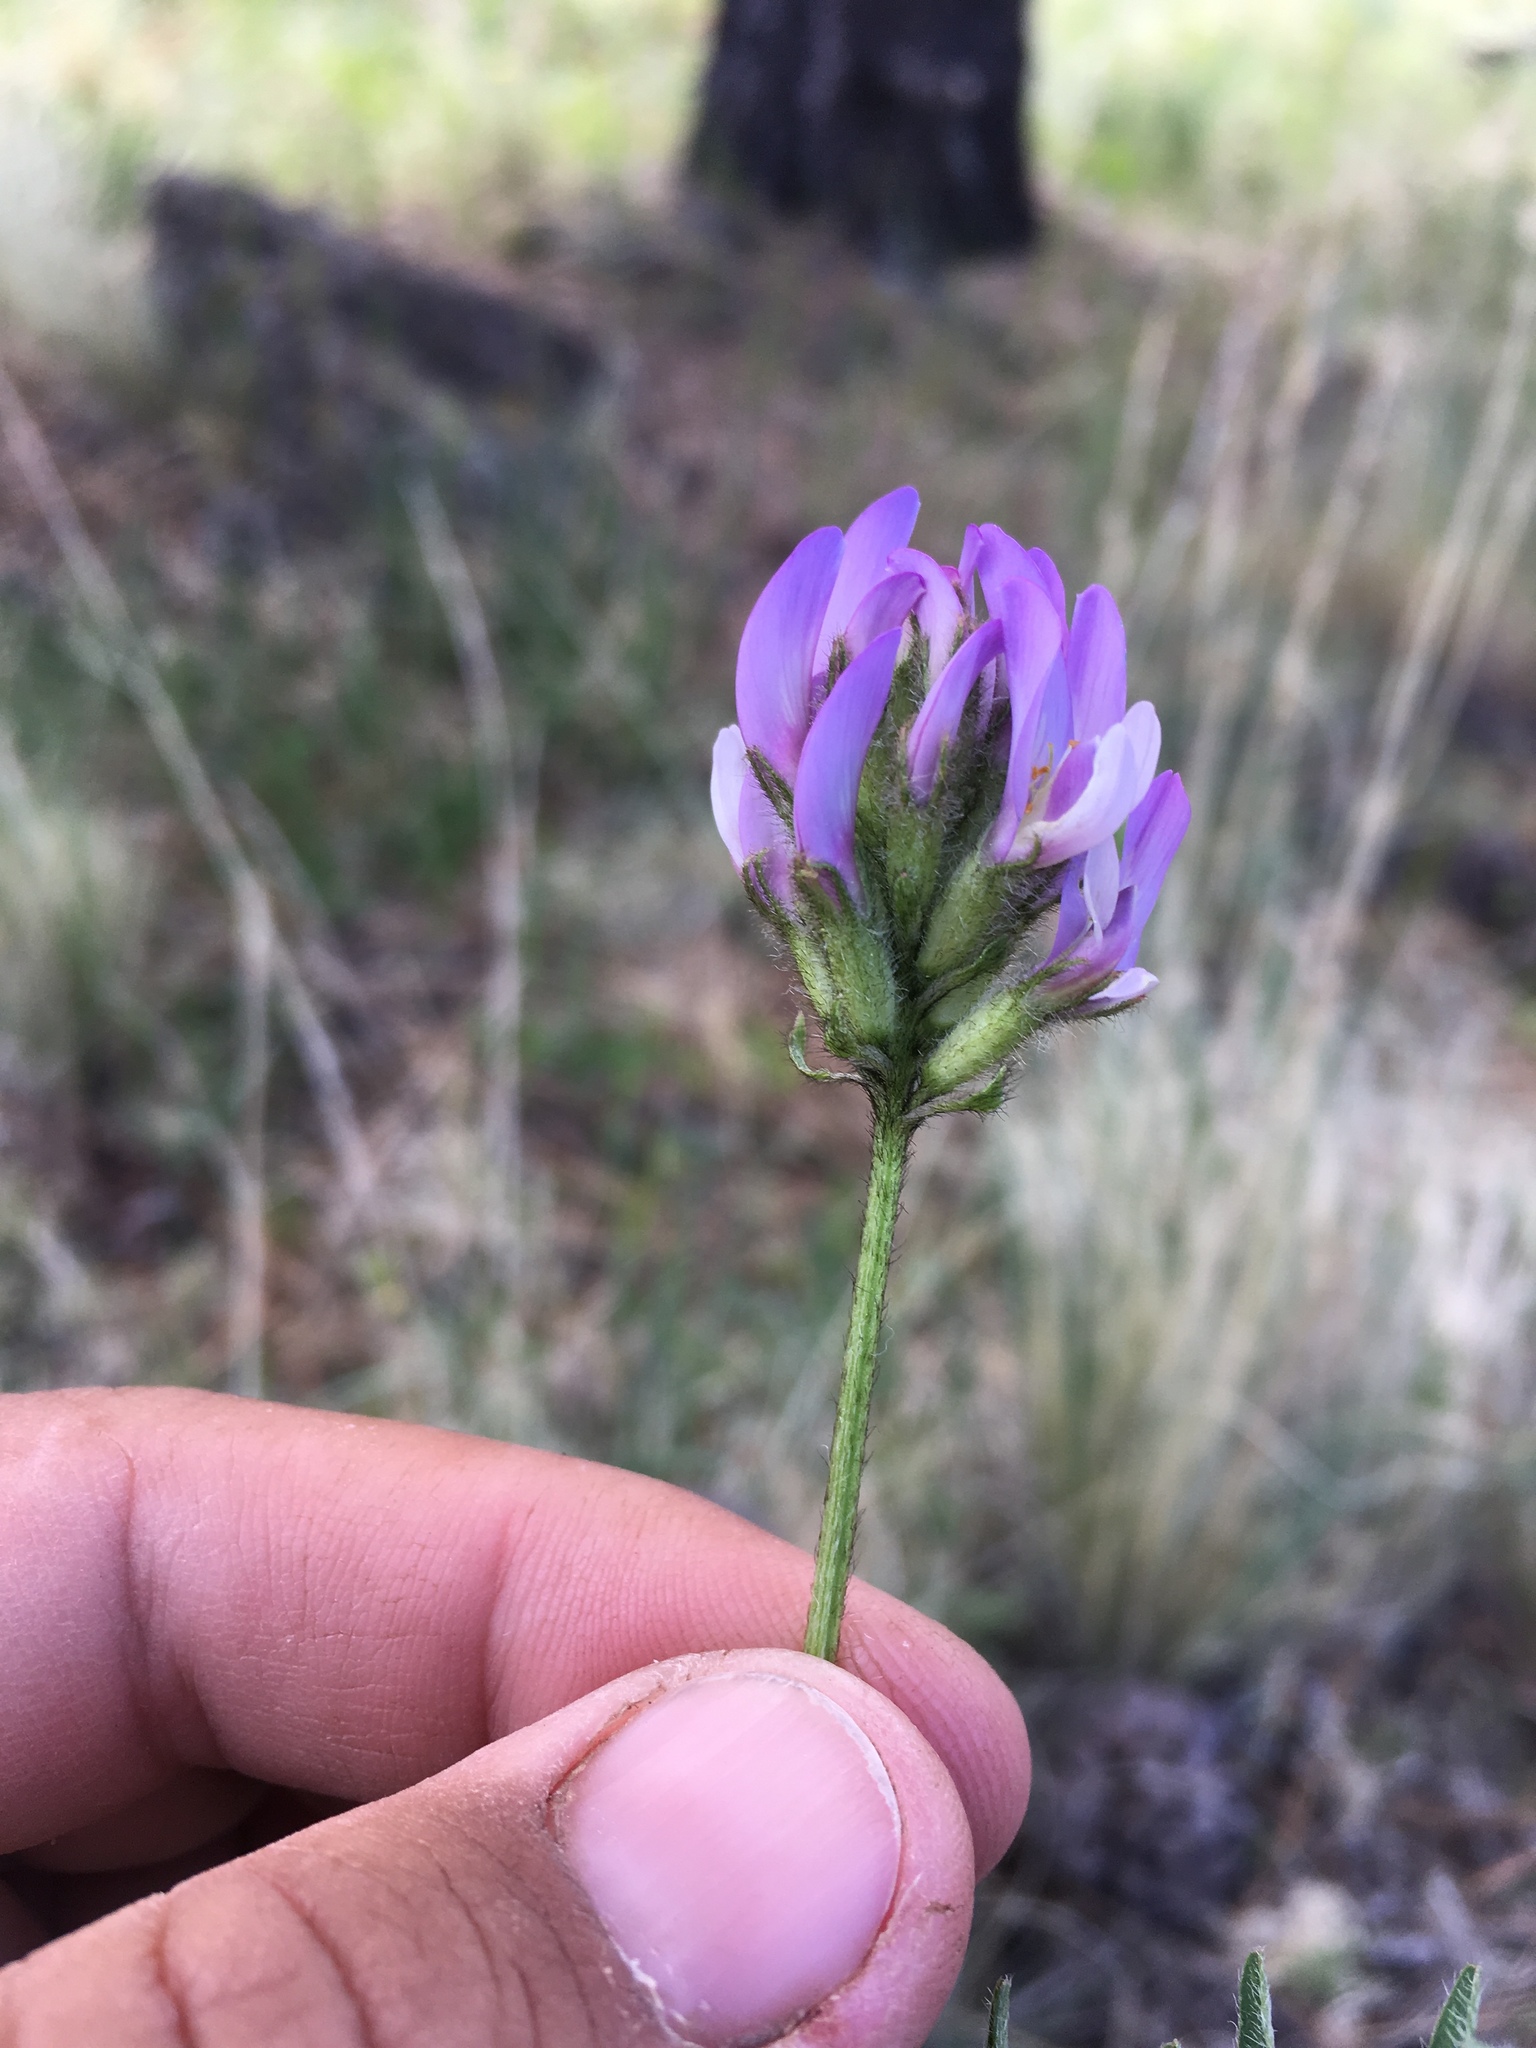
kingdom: Plantae
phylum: Tracheophyta
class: Magnoliopsida
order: Fabales
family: Fabaceae
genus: Astragalus
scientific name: Astragalus agrestis
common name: Field milk-vetch
